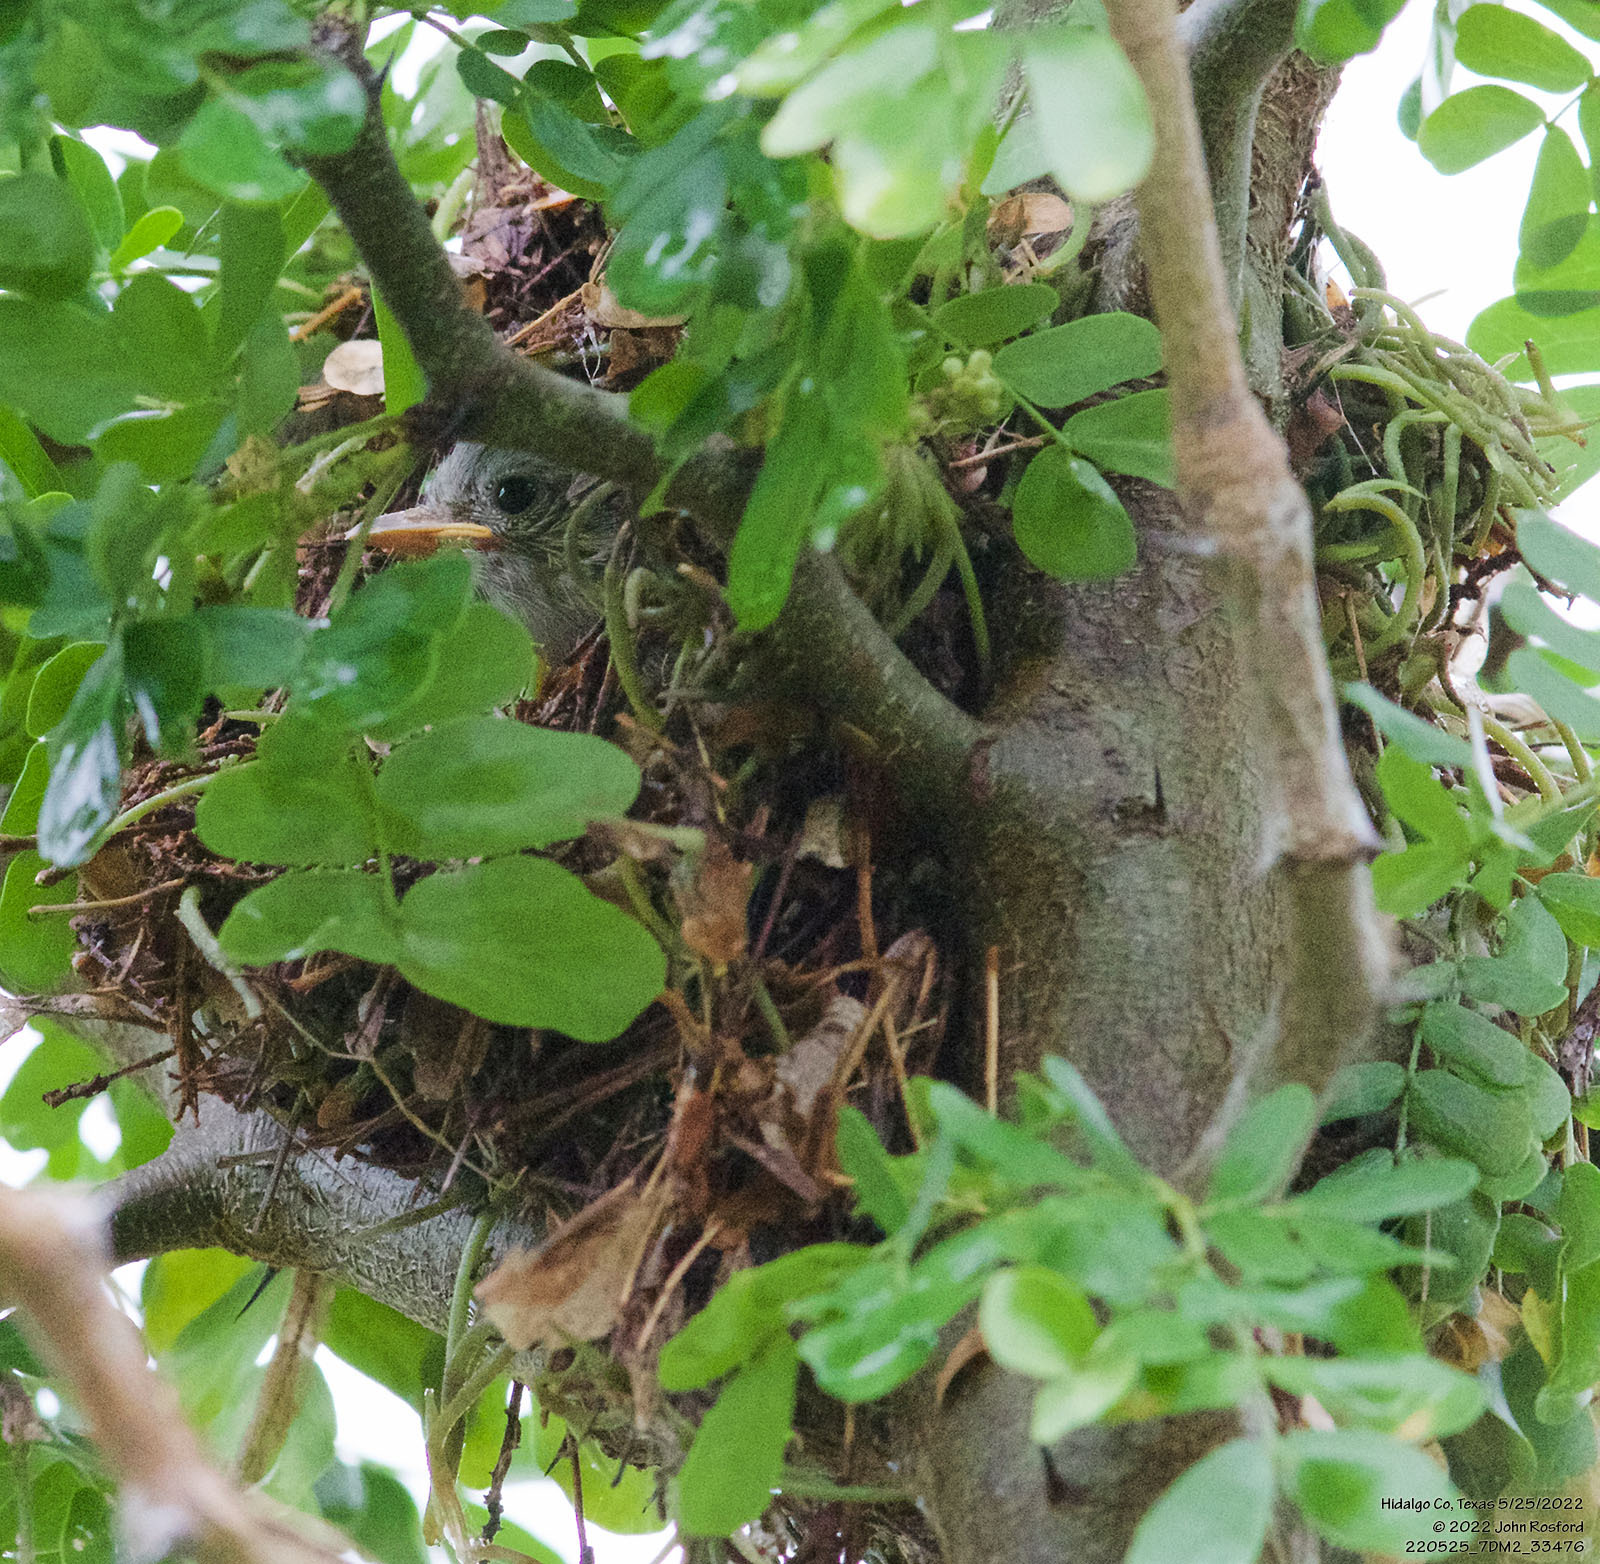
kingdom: Animalia
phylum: Chordata
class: Aves
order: Passeriformes
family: Tyrannidae
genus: Camptostoma
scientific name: Camptostoma imberbe
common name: Northern beardless-tyrannulet
